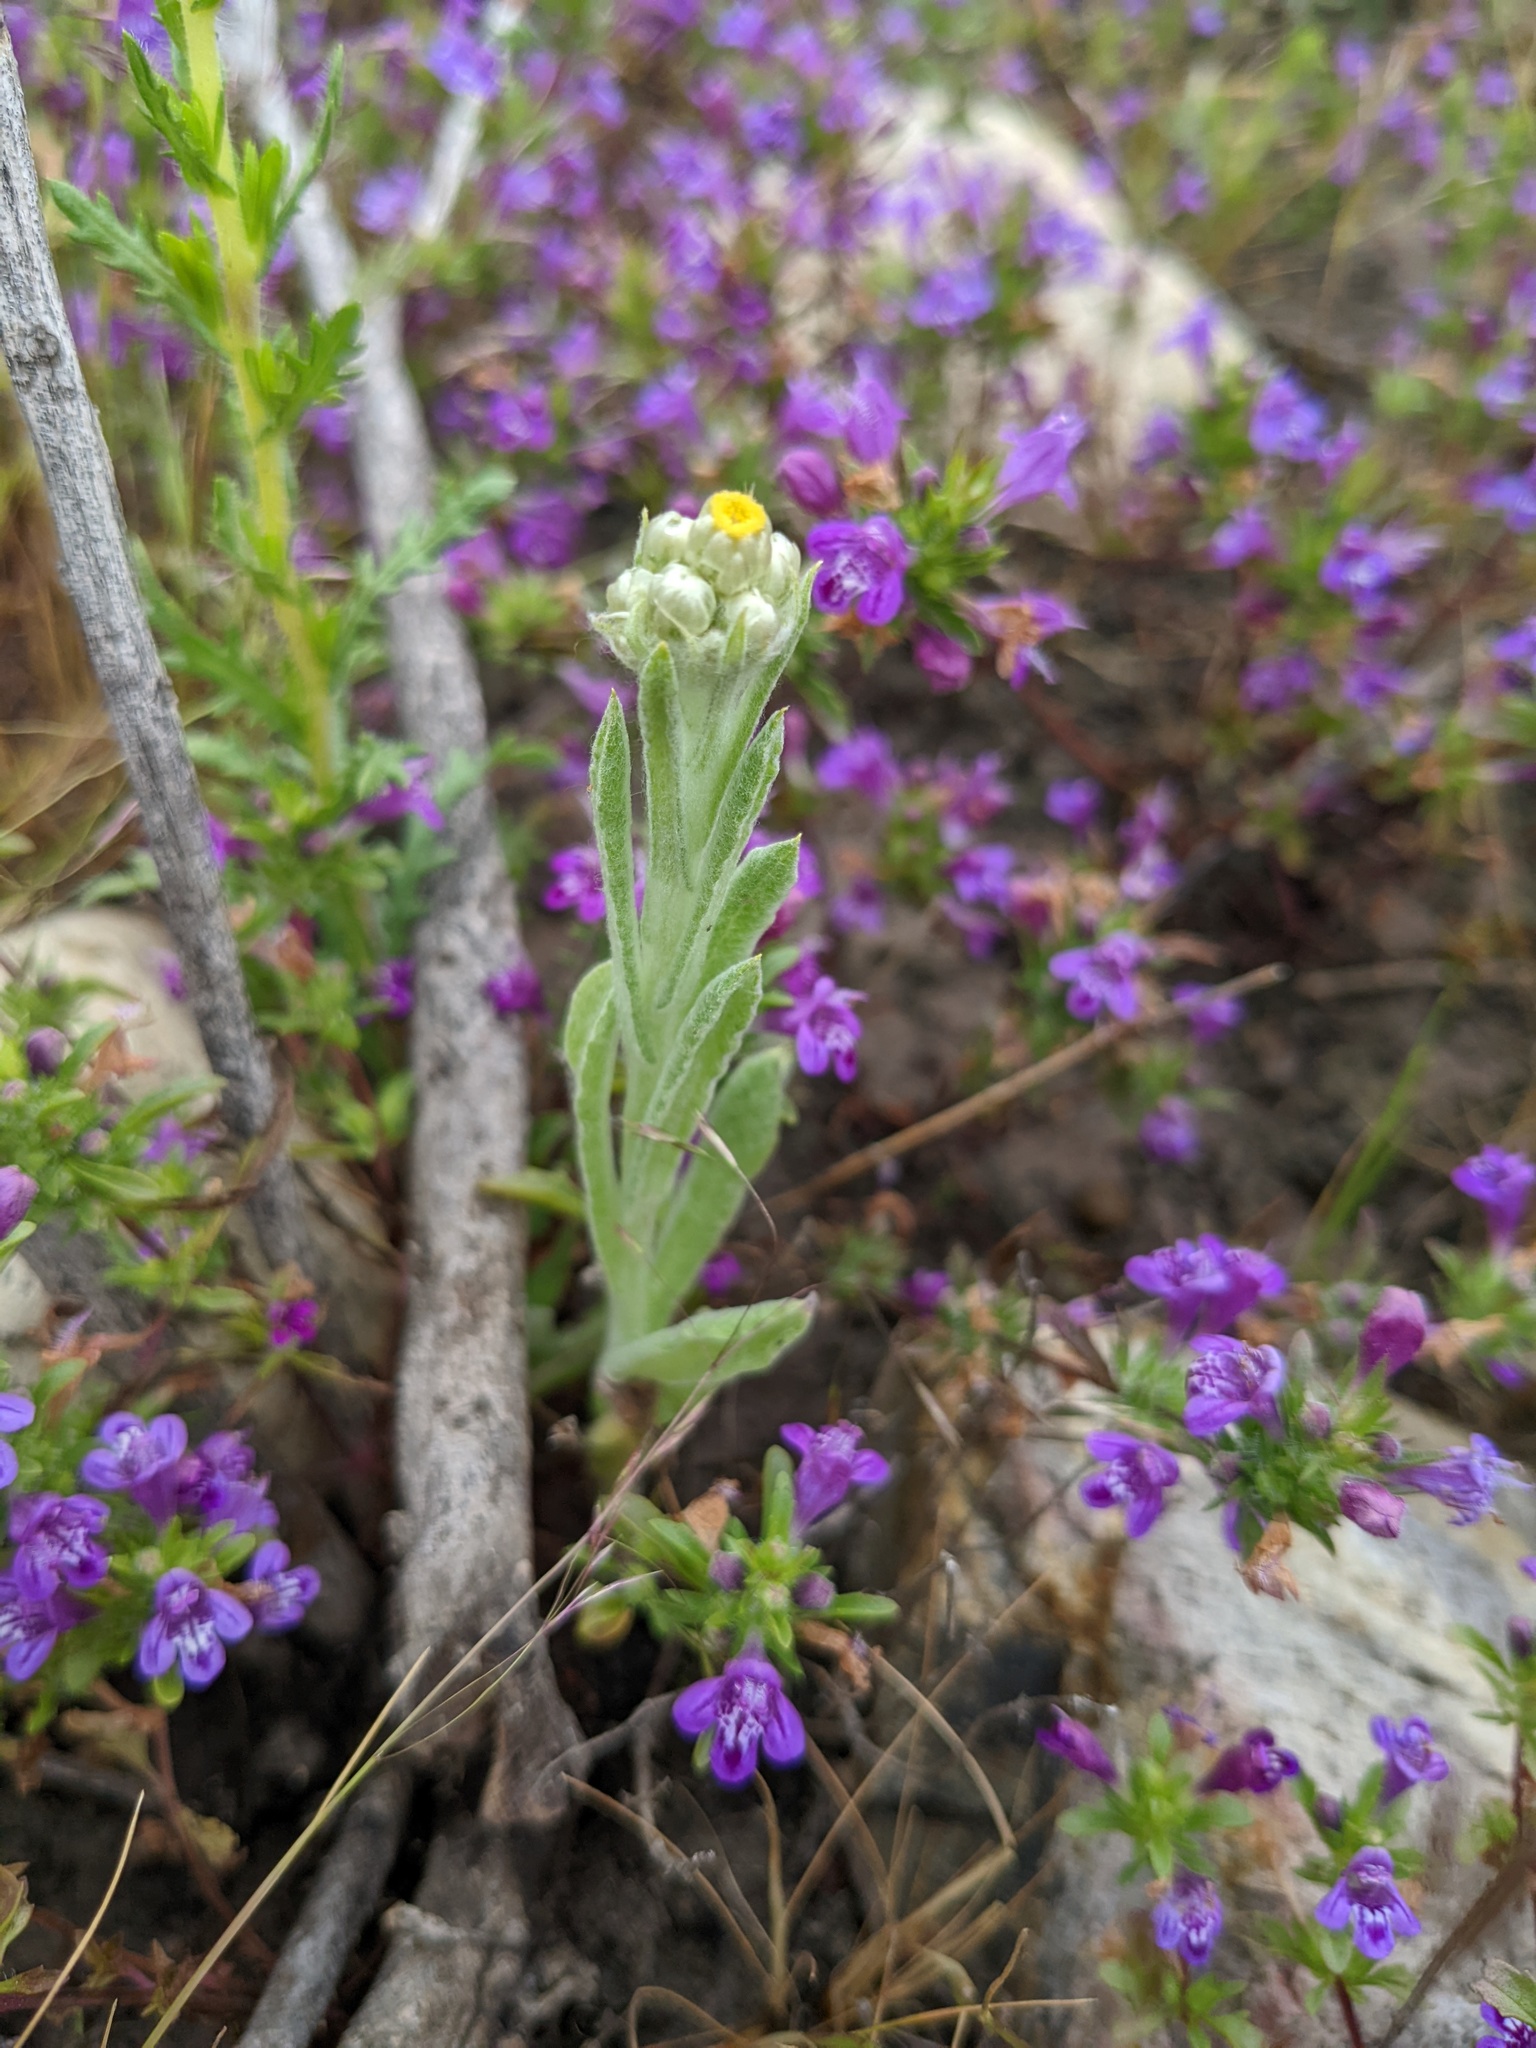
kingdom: Plantae
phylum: Tracheophyta
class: Magnoliopsida
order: Asterales
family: Asteraceae
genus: Pseudognaphalium
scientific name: Pseudognaphalium stramineum
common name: Cotton-batting-plant
